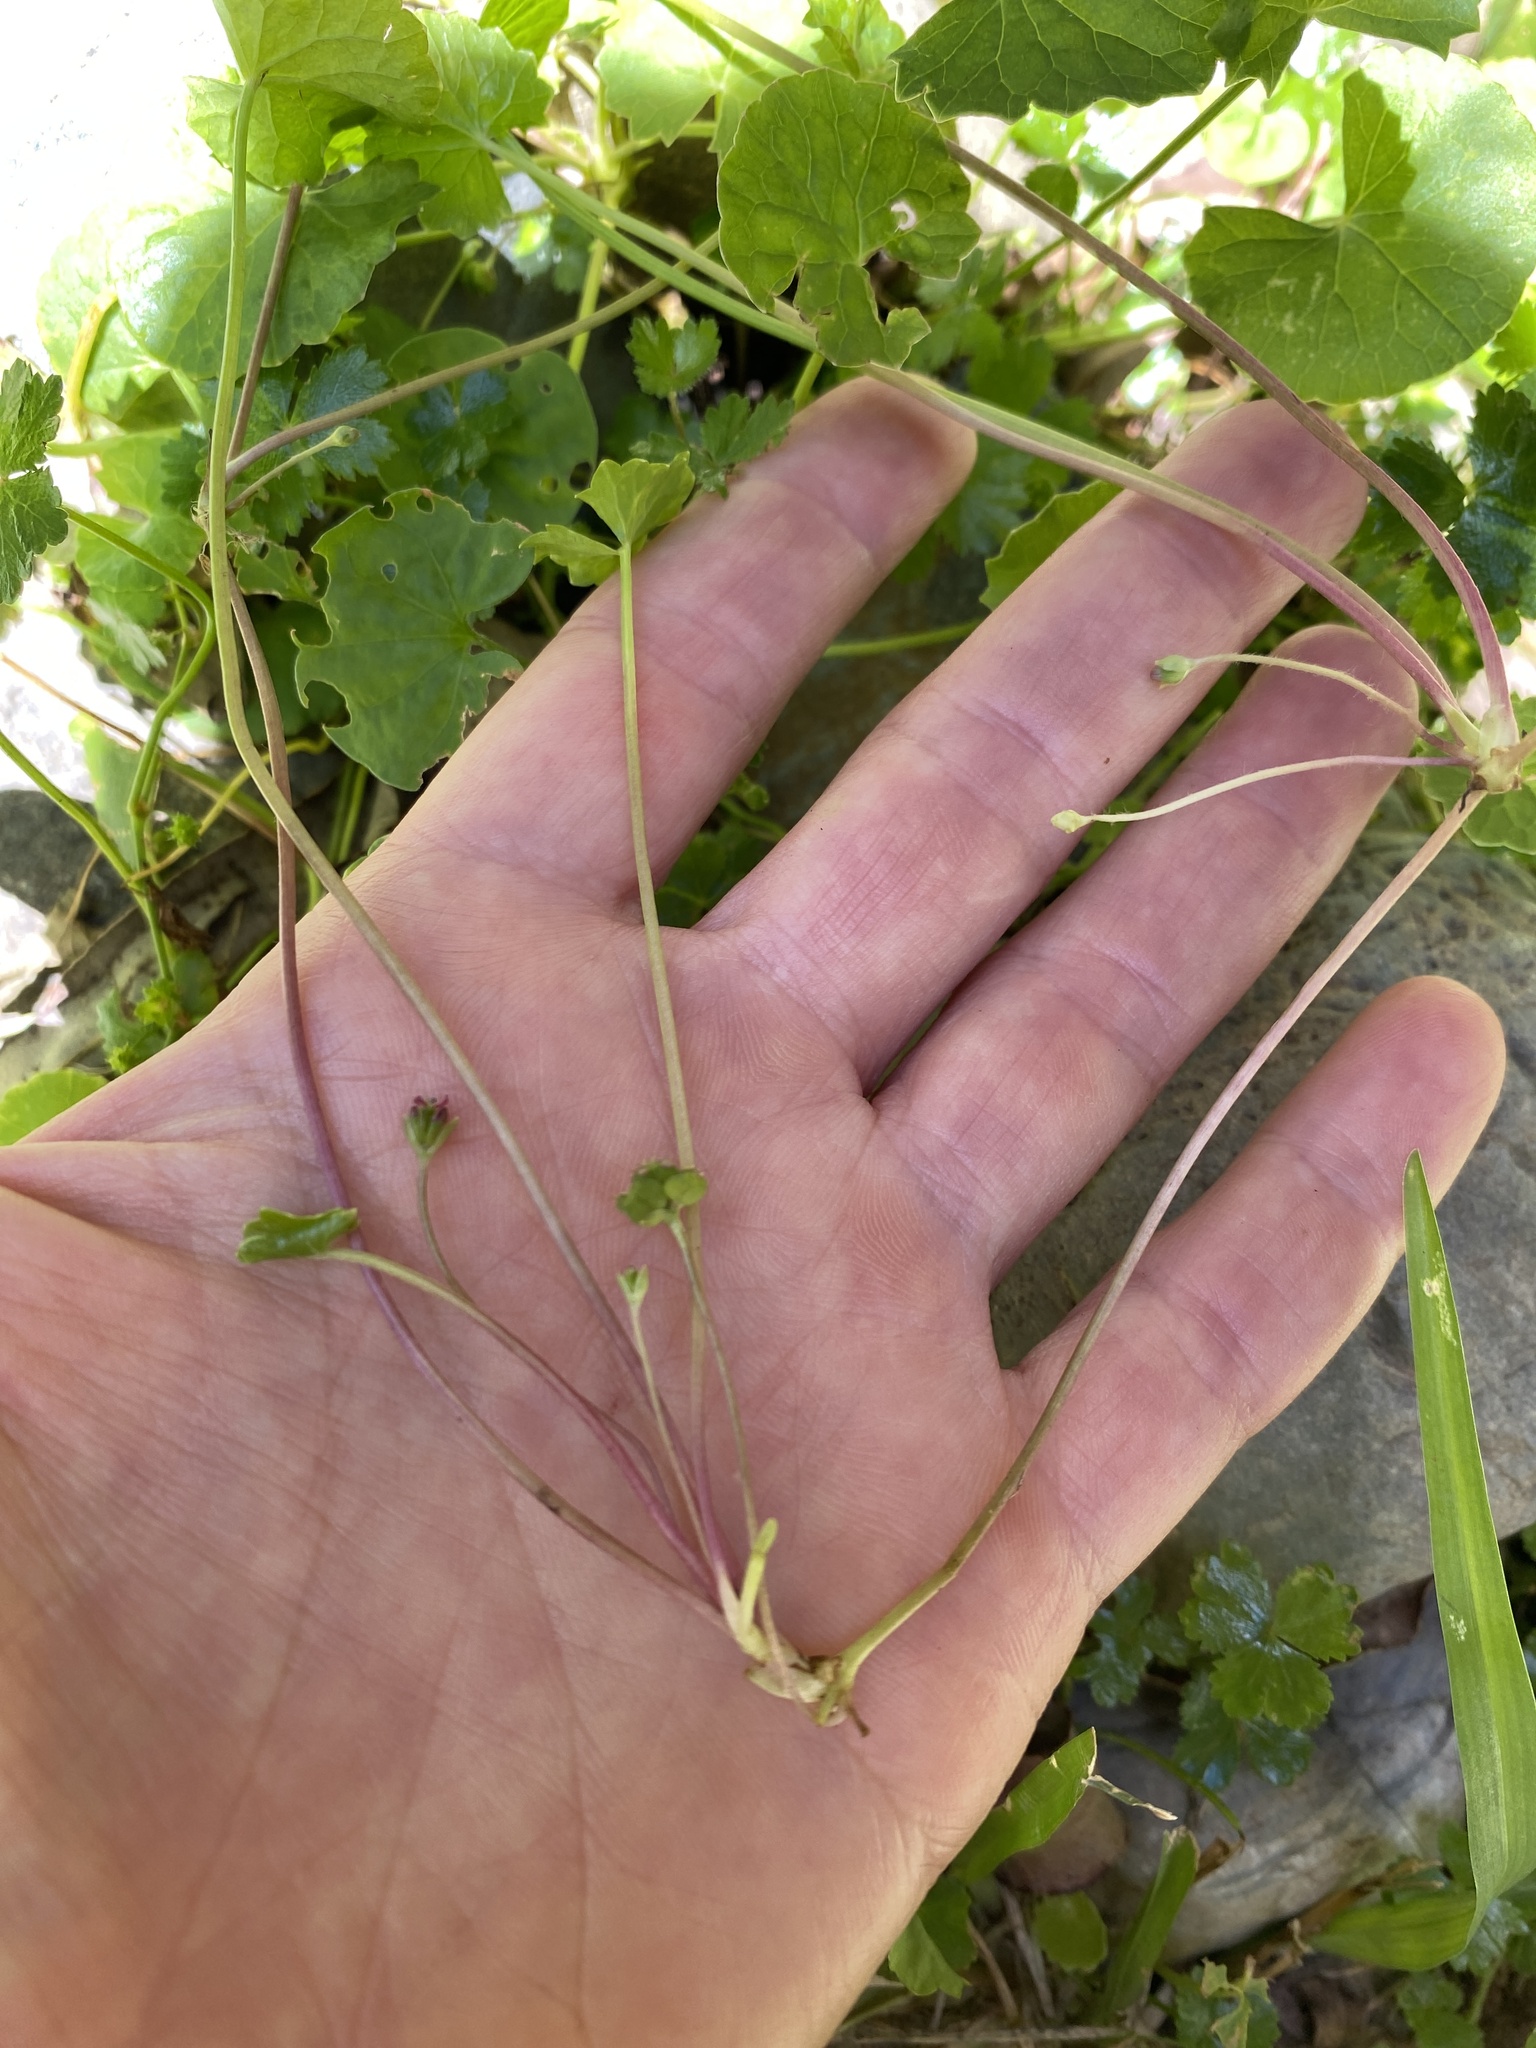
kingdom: Plantae
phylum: Tracheophyta
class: Magnoliopsida
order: Apiales
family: Apiaceae
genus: Centella
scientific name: Centella asiatica
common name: Spadeleaf
